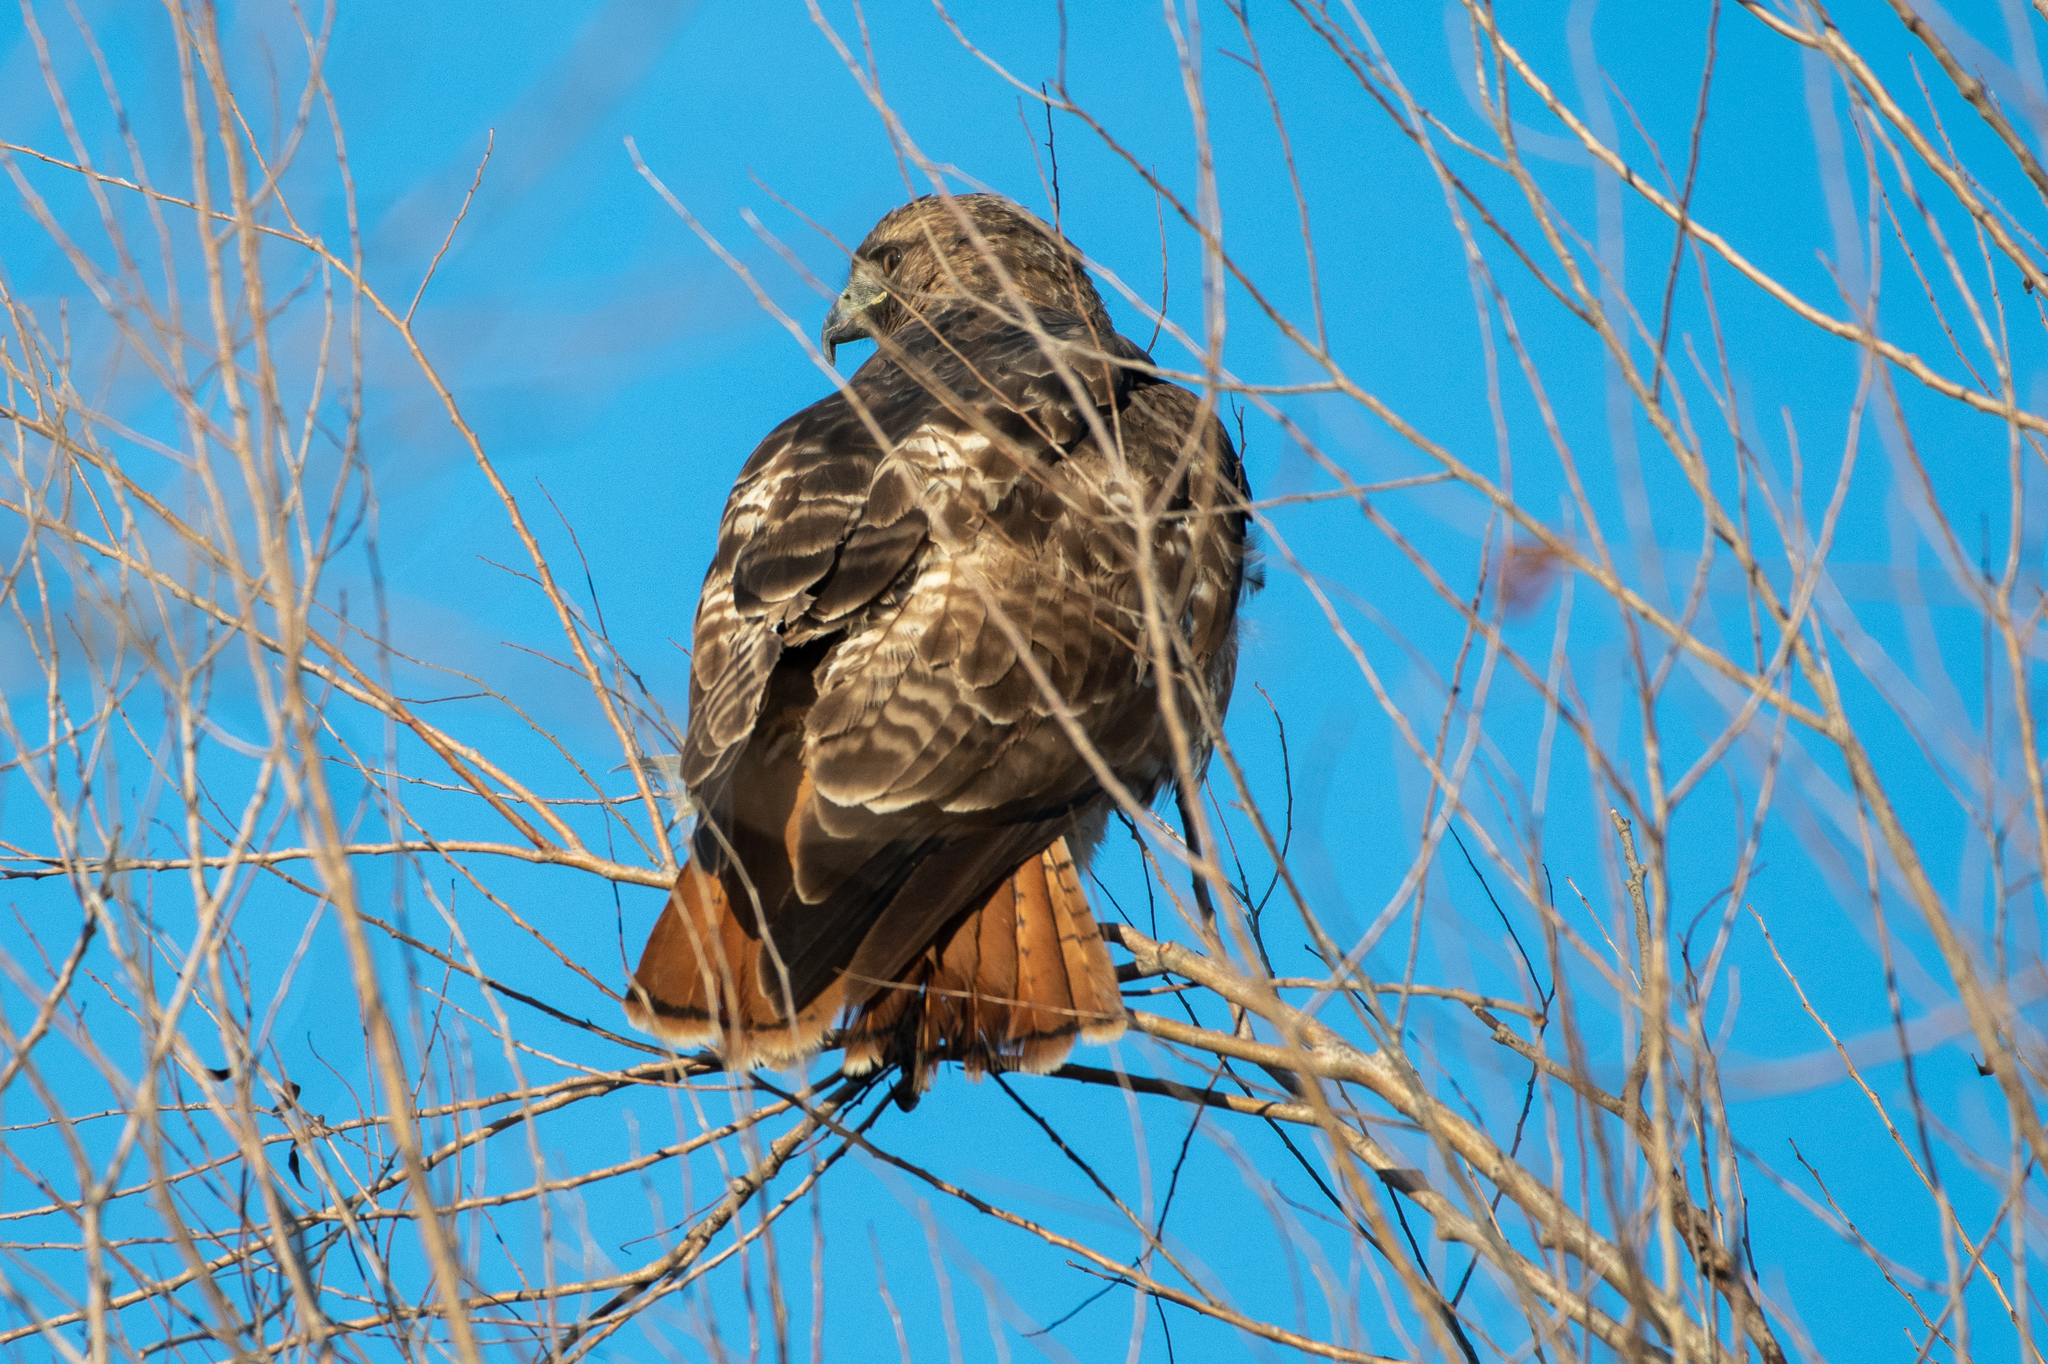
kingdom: Animalia
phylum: Chordata
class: Aves
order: Accipitriformes
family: Accipitridae
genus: Buteo
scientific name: Buteo jamaicensis
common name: Red-tailed hawk
